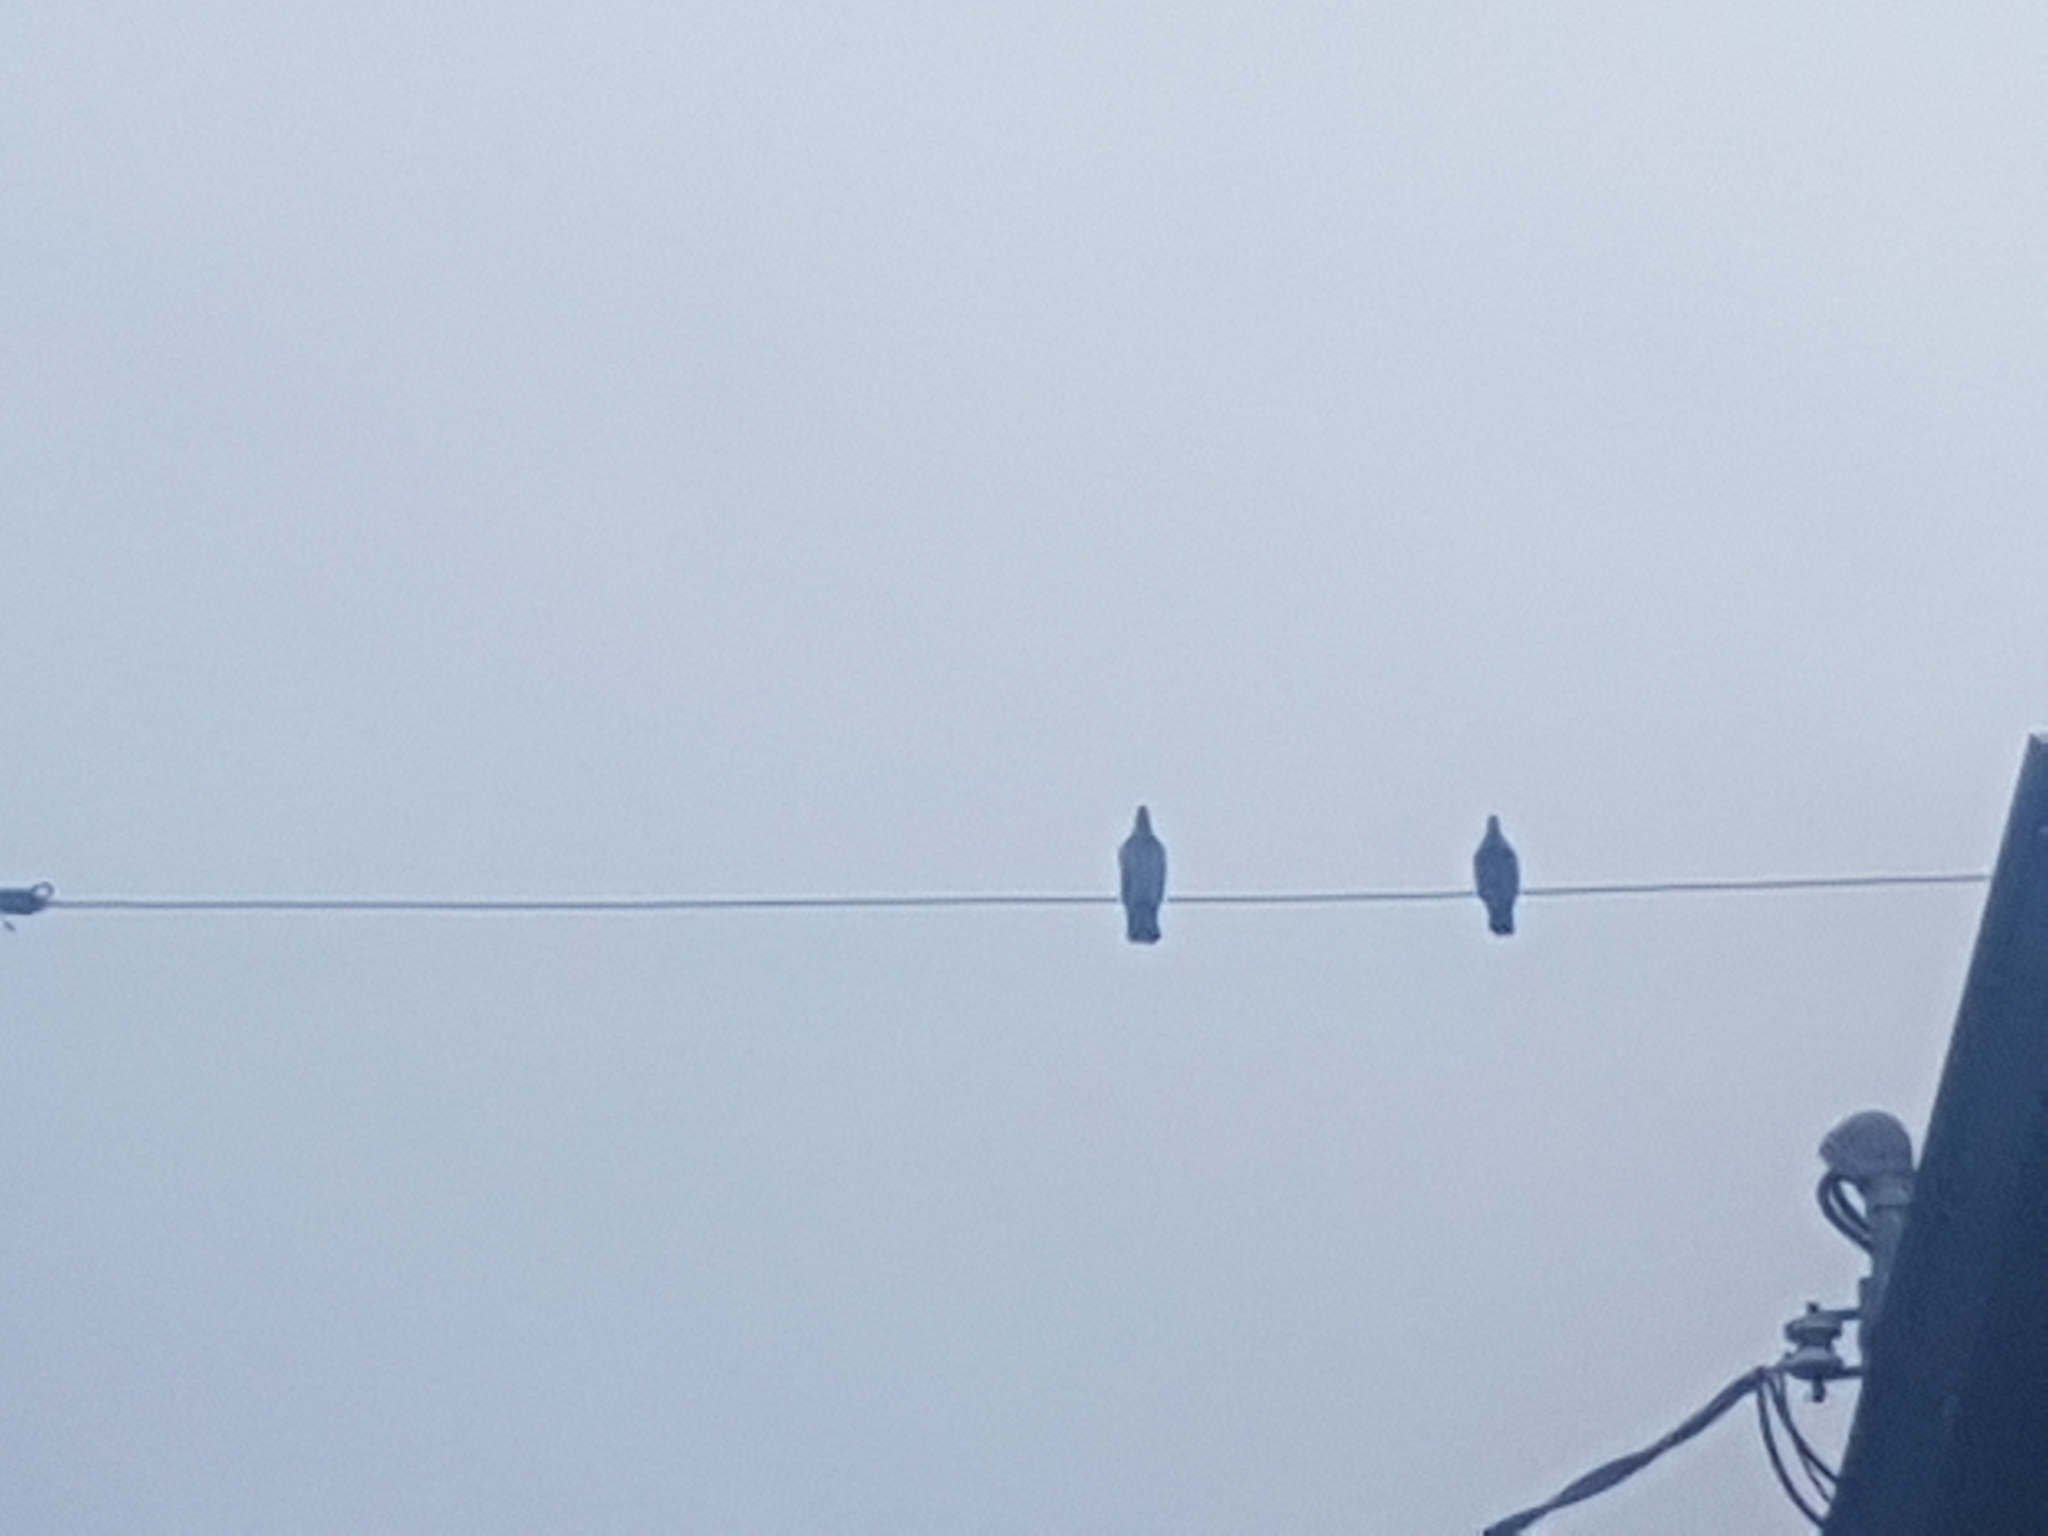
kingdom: Animalia
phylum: Chordata
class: Aves
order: Columbiformes
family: Columbidae
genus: Columba
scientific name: Columba livia
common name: Rock pigeon
